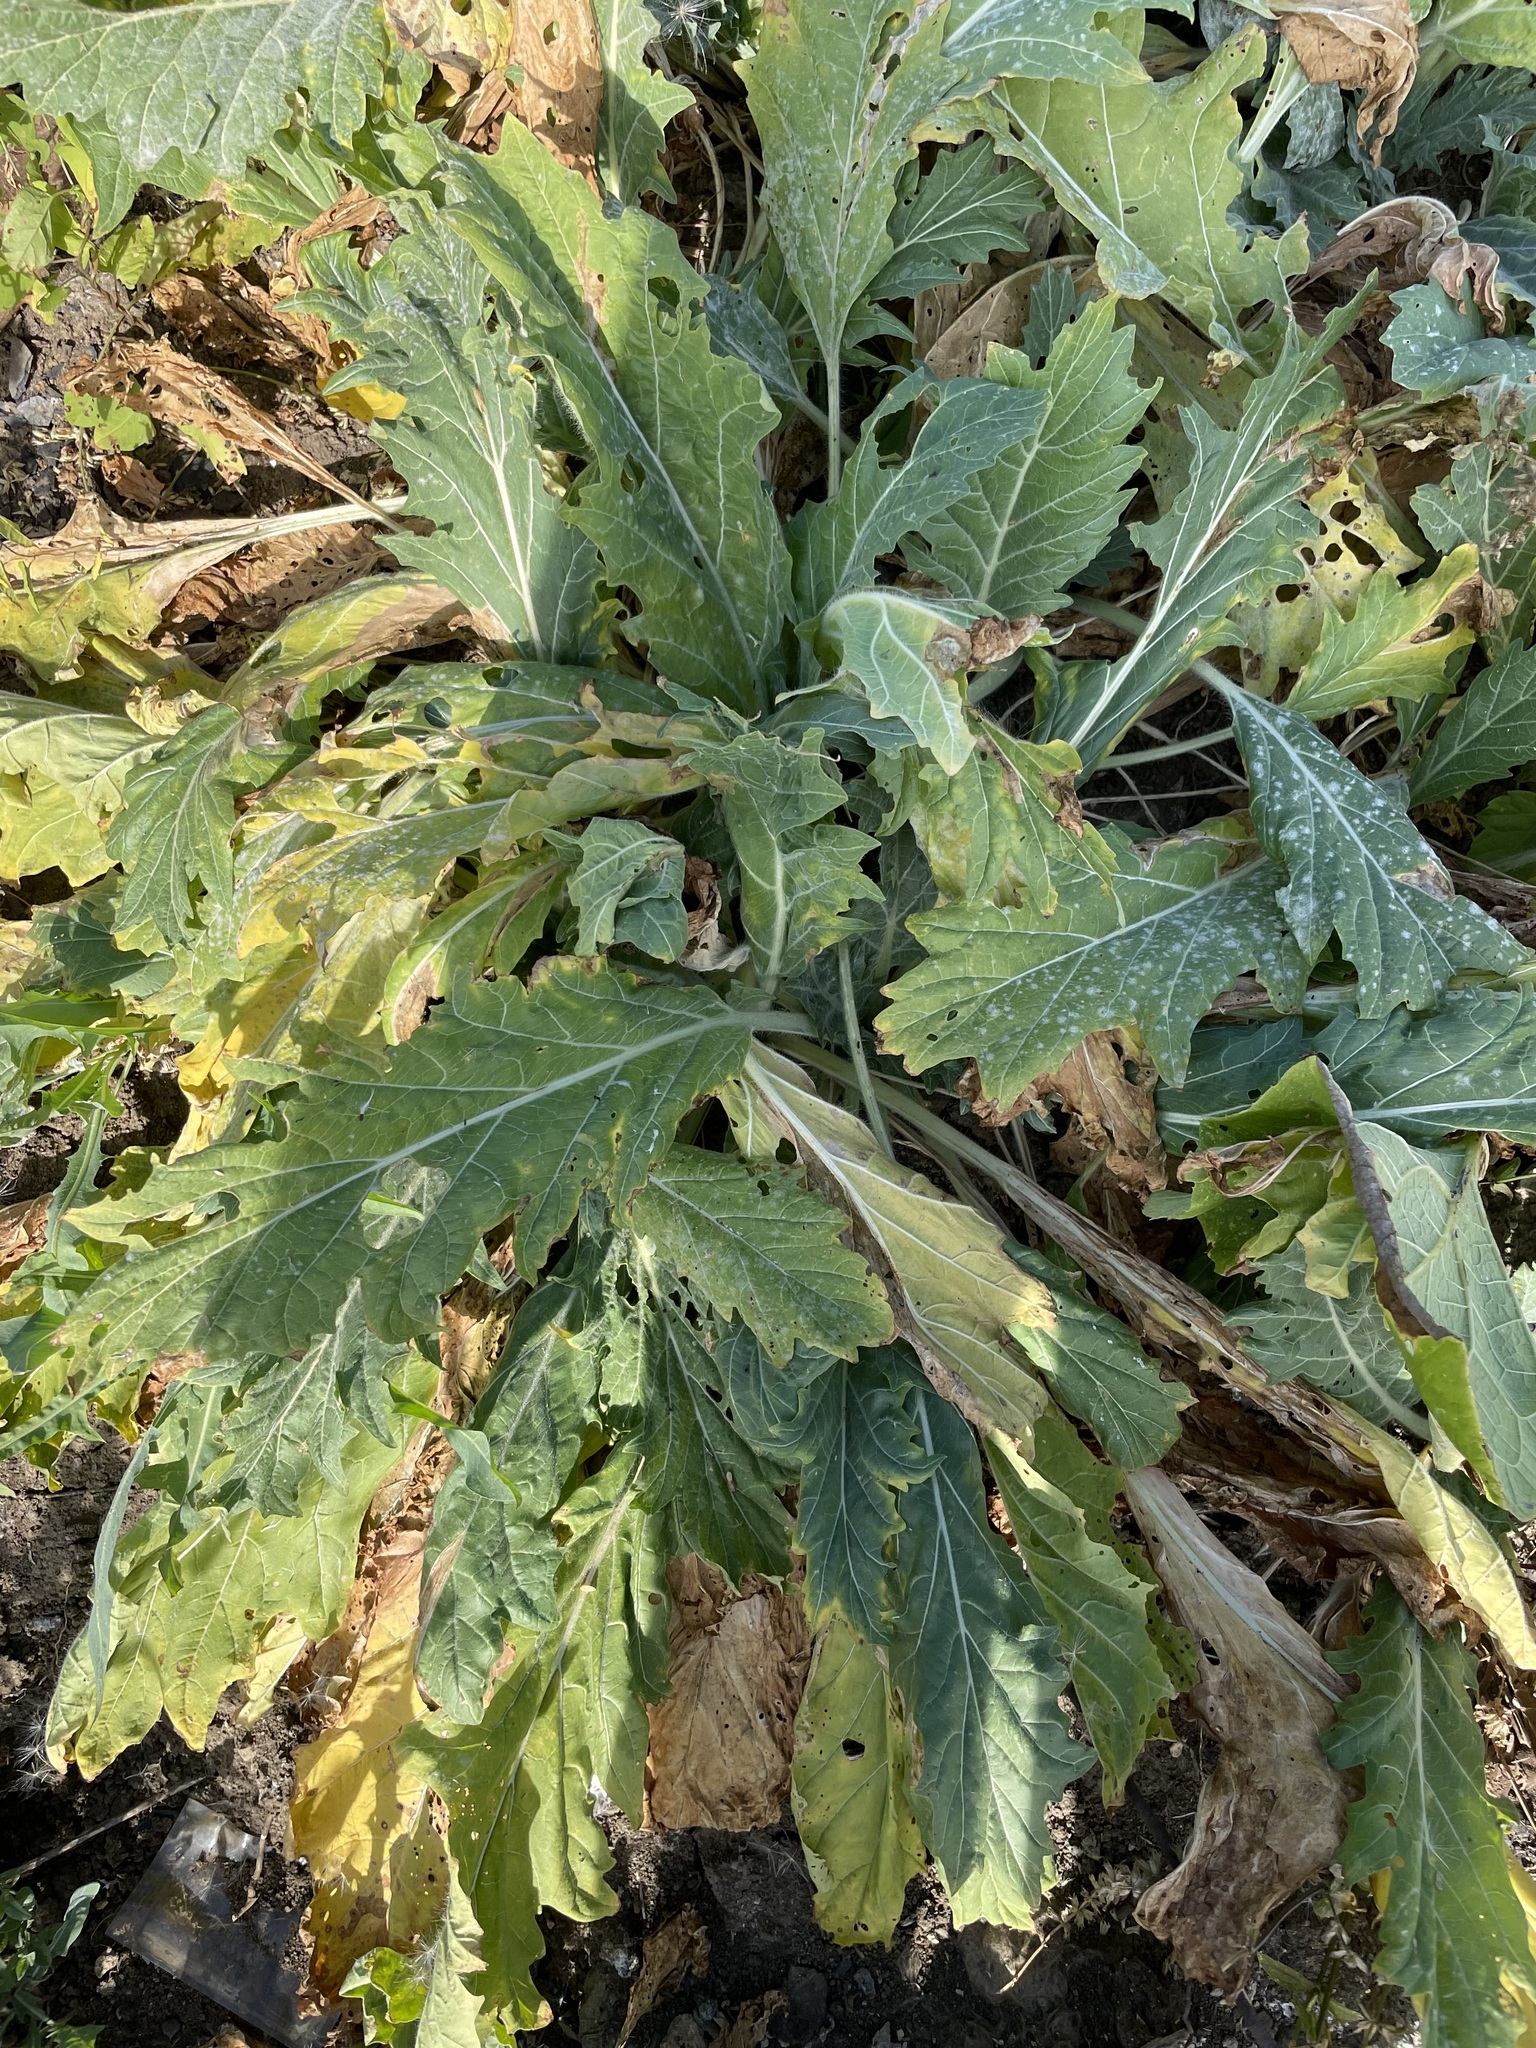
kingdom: Plantae
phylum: Tracheophyta
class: Magnoliopsida
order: Solanales
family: Solanaceae
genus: Hyoscyamus
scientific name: Hyoscyamus niger
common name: Henbane
